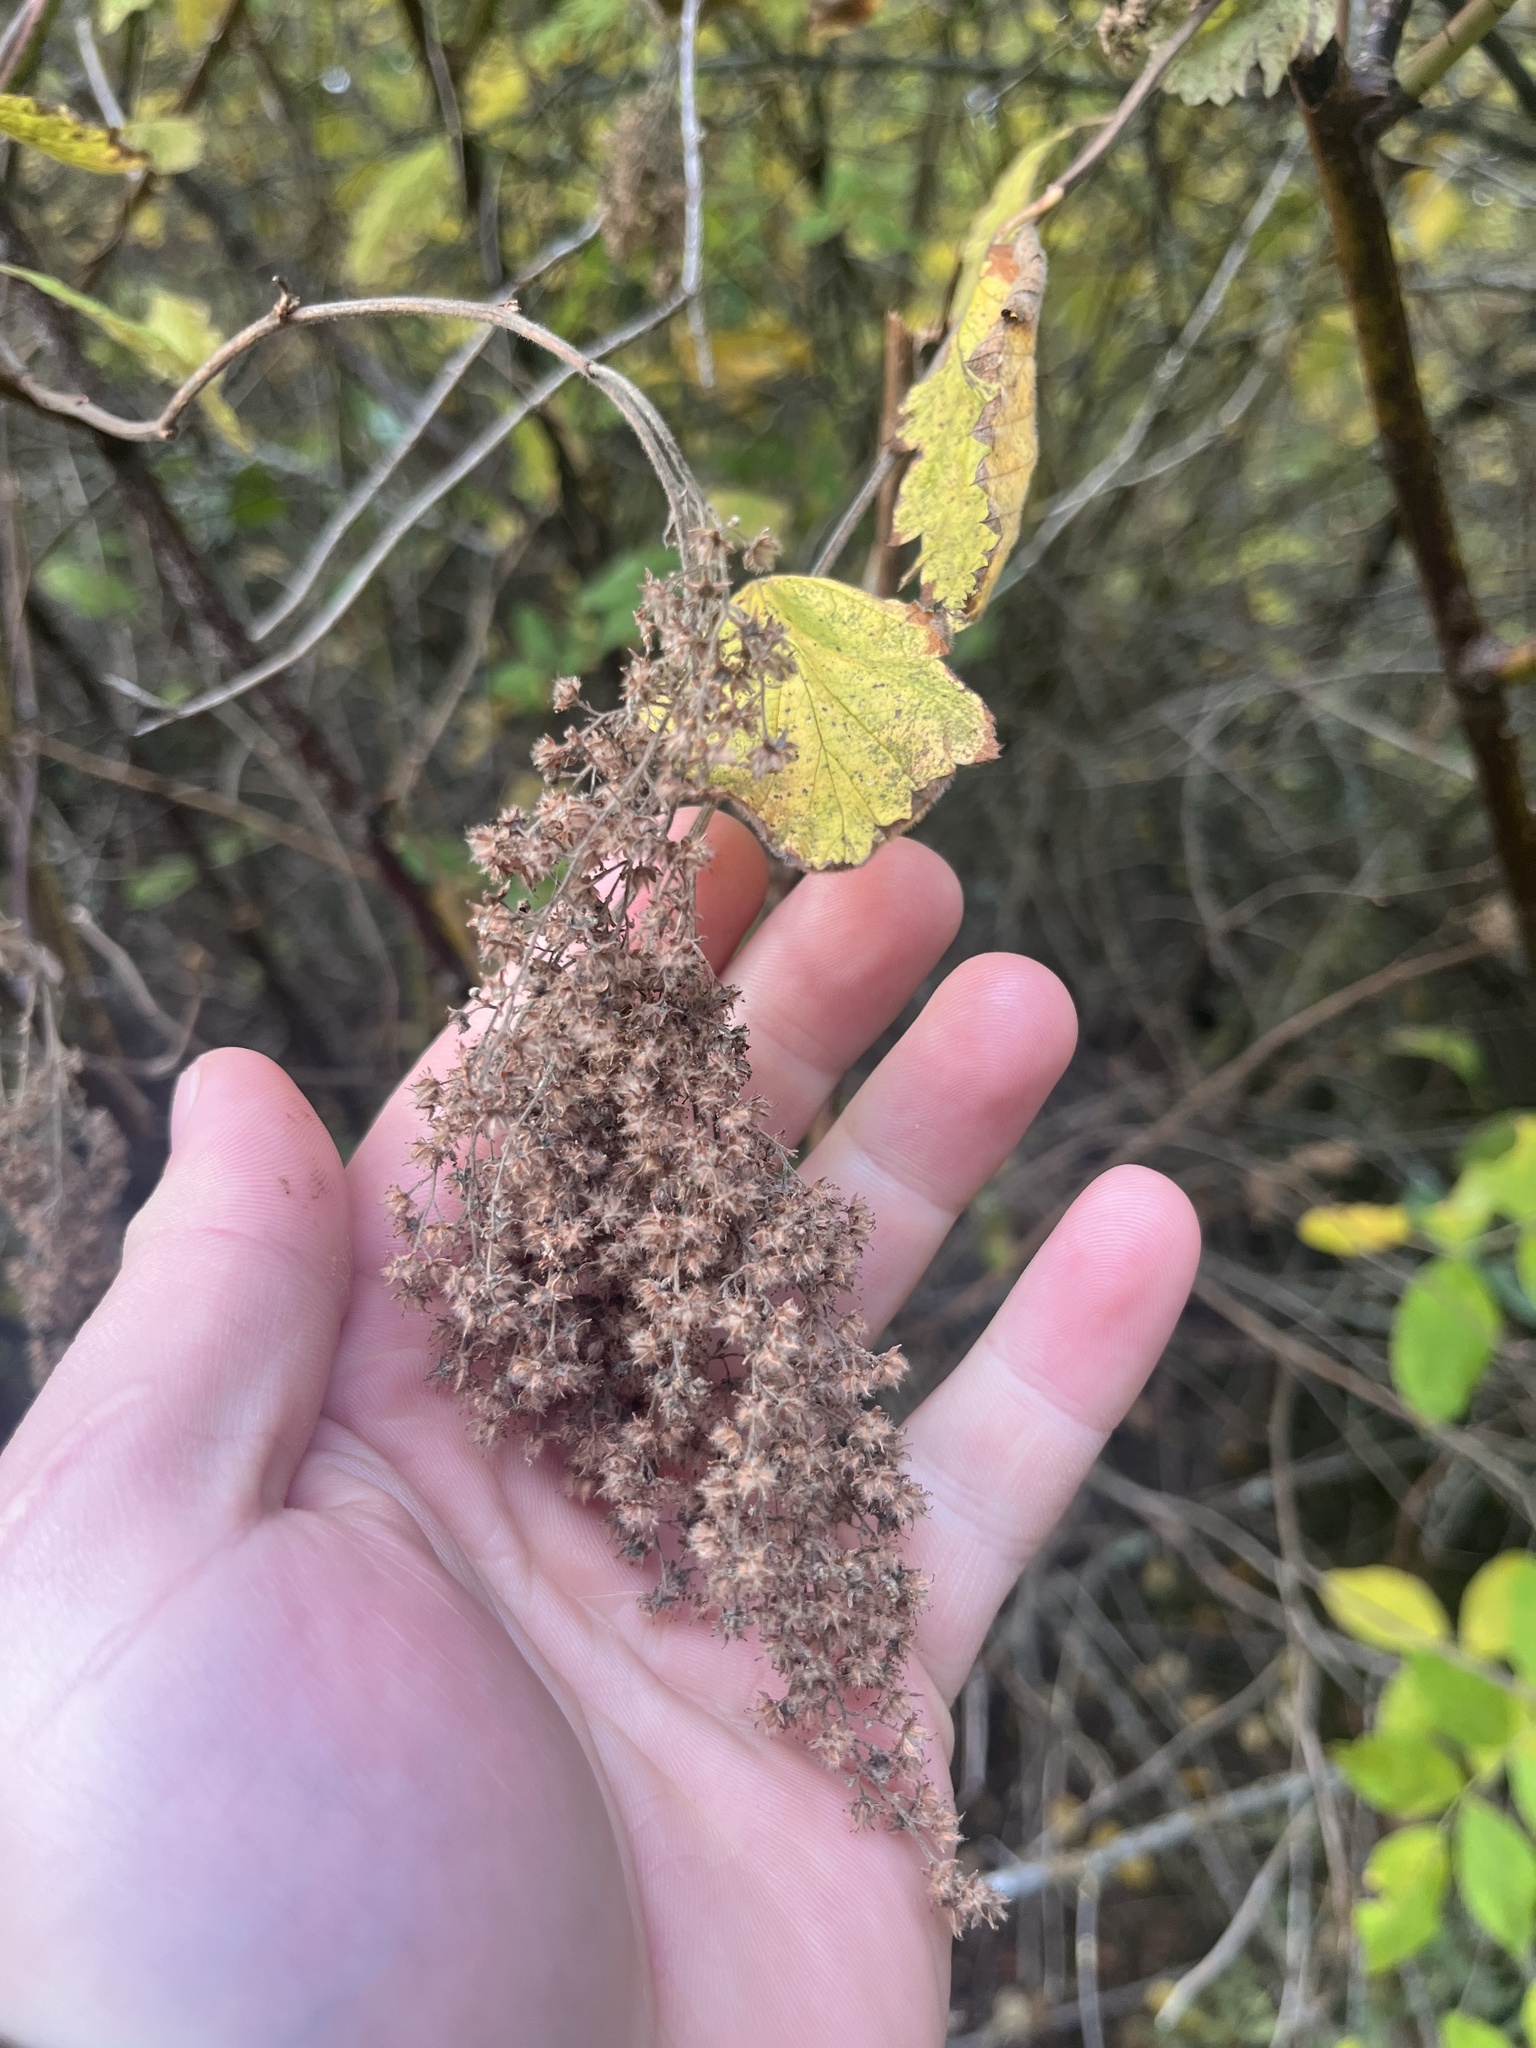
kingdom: Plantae
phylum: Tracheophyta
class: Magnoliopsida
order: Rosales
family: Rosaceae
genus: Holodiscus
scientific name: Holodiscus discolor
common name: Oceanspray
